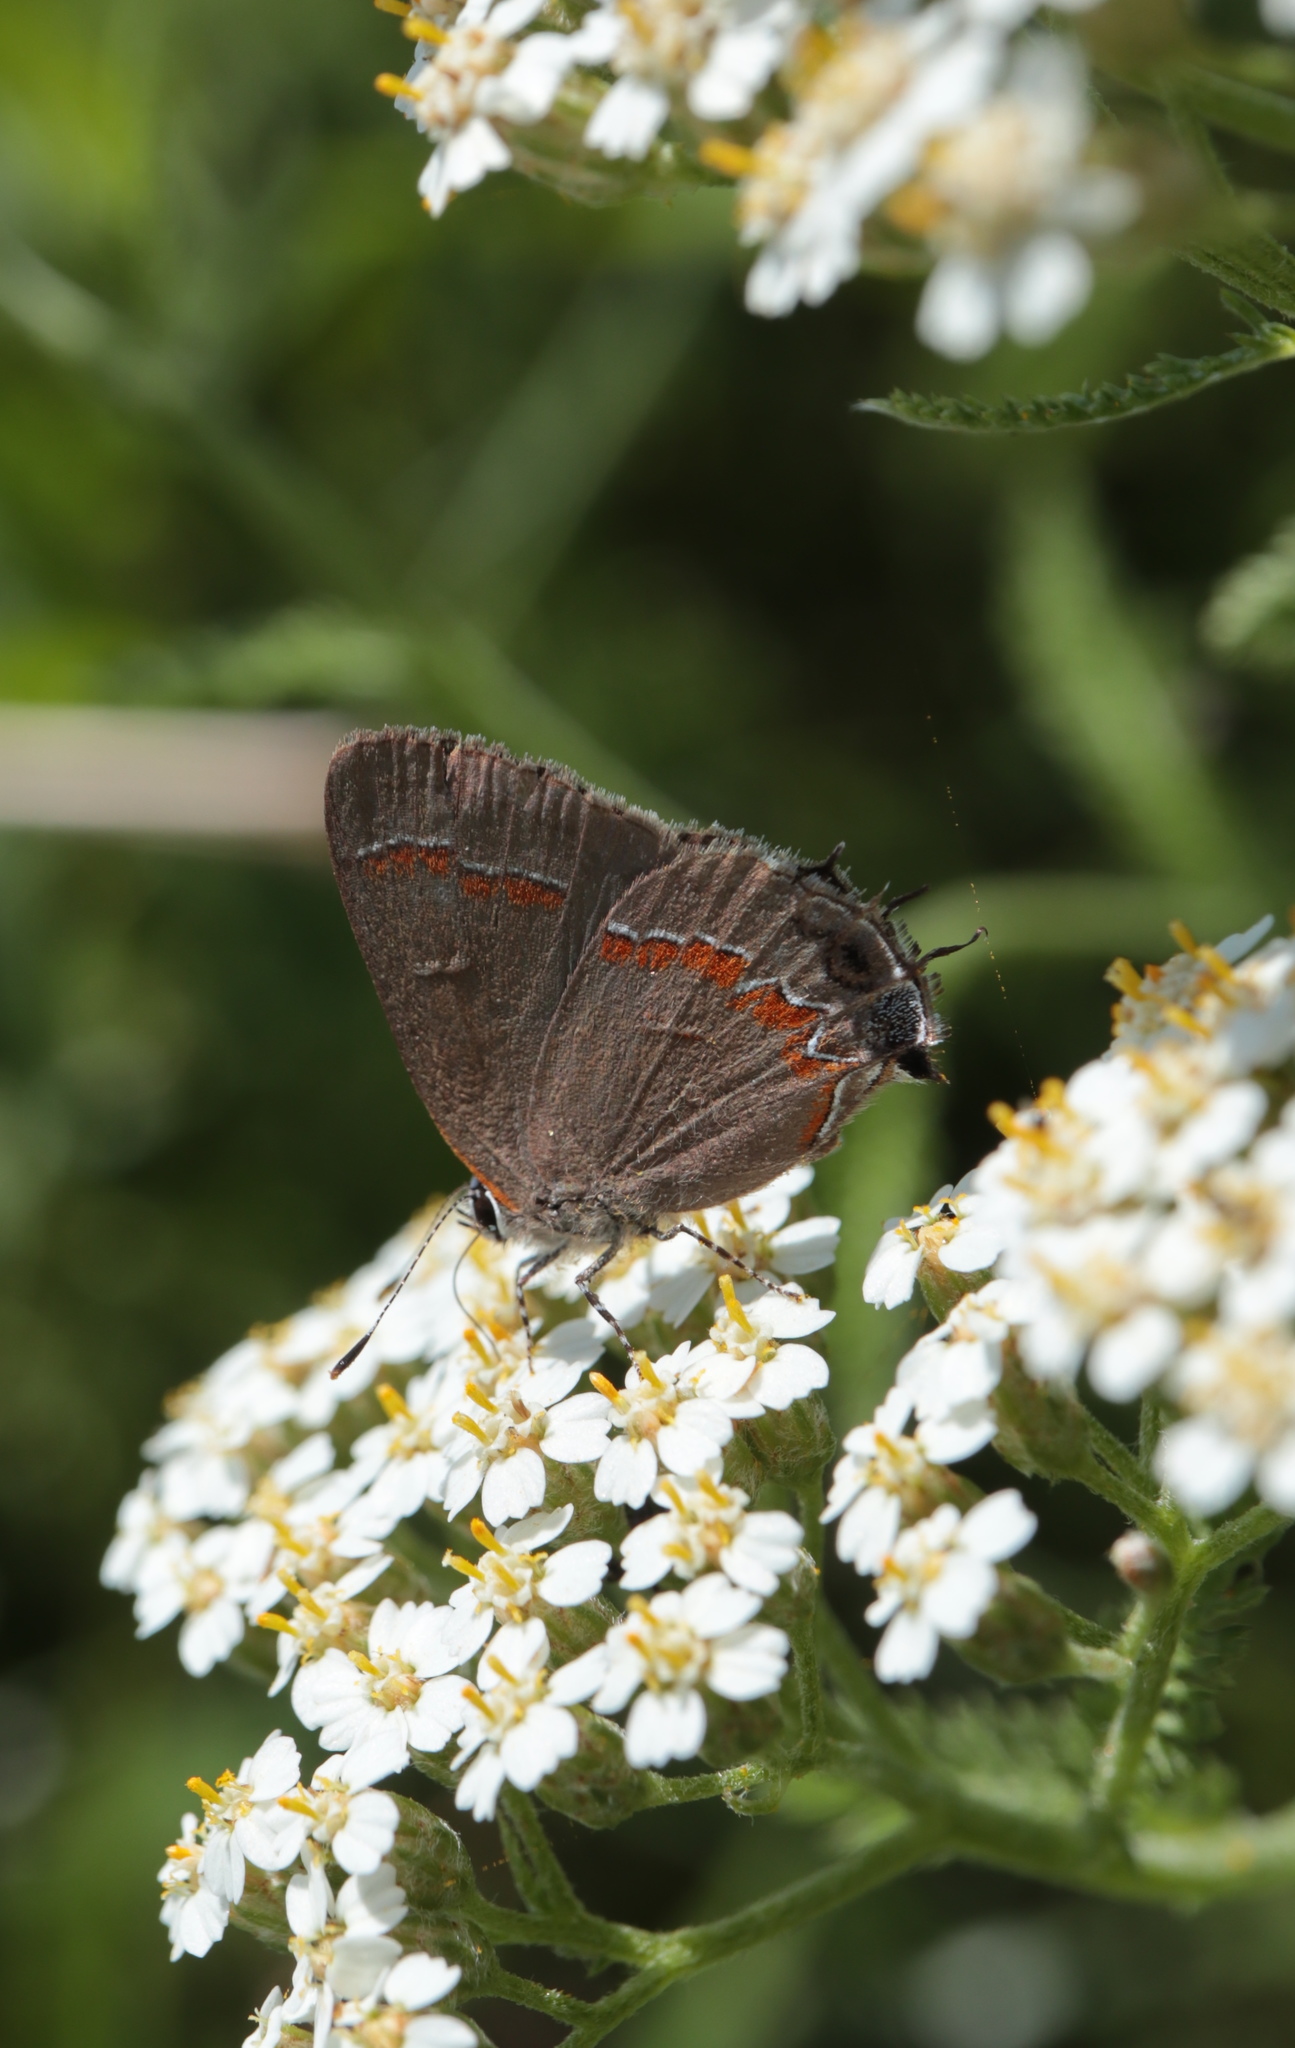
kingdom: Animalia
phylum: Arthropoda
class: Insecta
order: Lepidoptera
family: Lycaenidae
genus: Calycopis
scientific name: Calycopis cecrops
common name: Red-banded hairstreak
